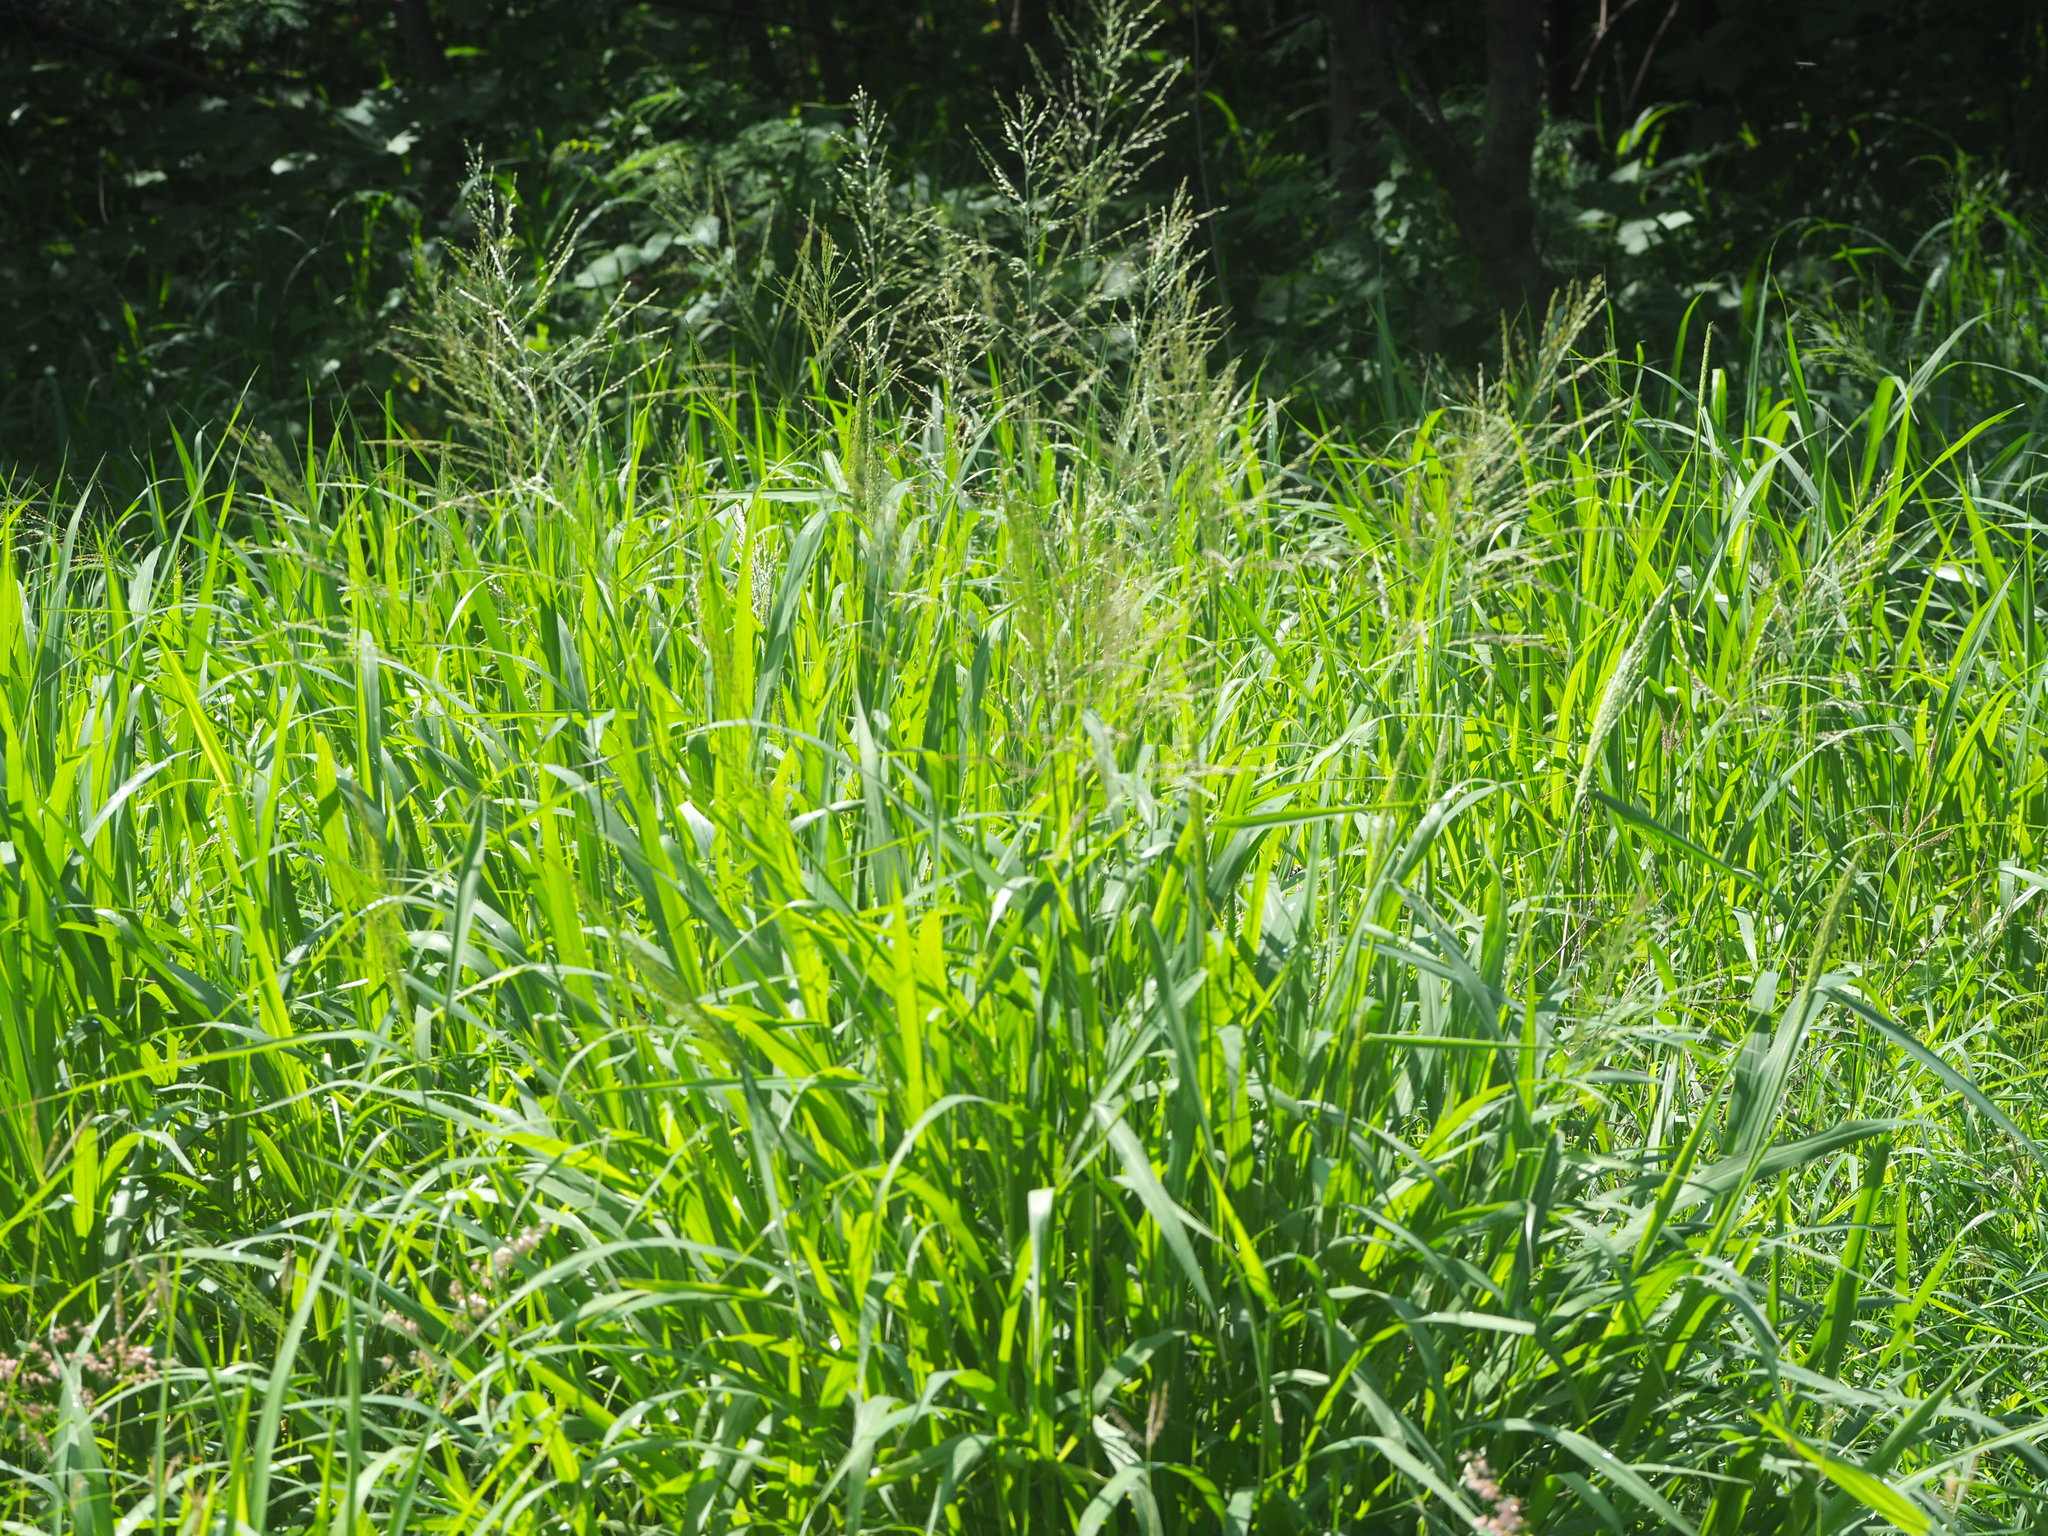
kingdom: Plantae
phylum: Tracheophyta
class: Liliopsida
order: Poales
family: Poaceae
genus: Megathyrsus
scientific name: Megathyrsus maximus
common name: Guineagrass
